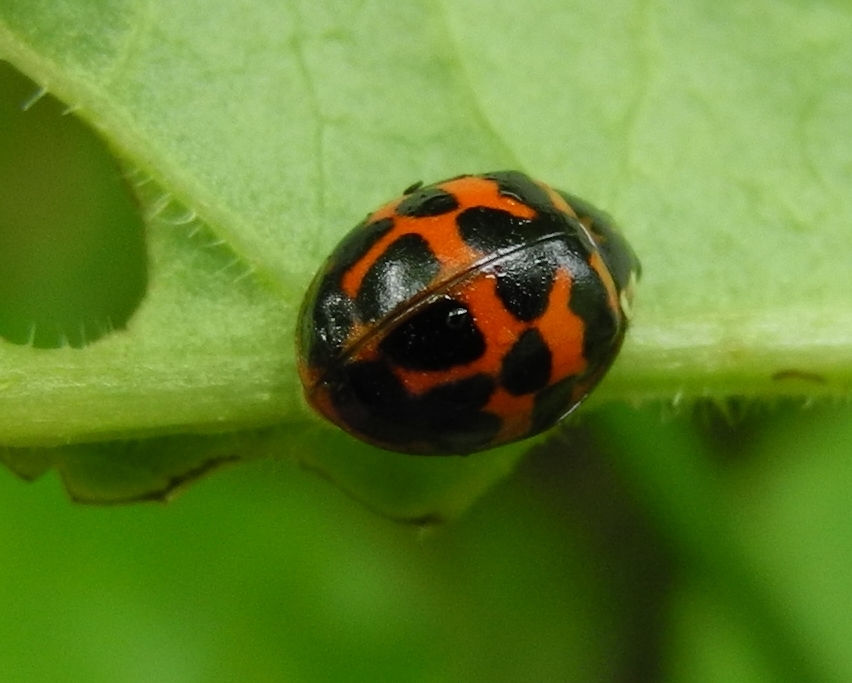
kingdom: Animalia
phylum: Arthropoda
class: Insecta
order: Coleoptera
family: Coccinellidae
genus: Harmonia
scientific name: Harmonia axyridis
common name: Harlequin ladybird
